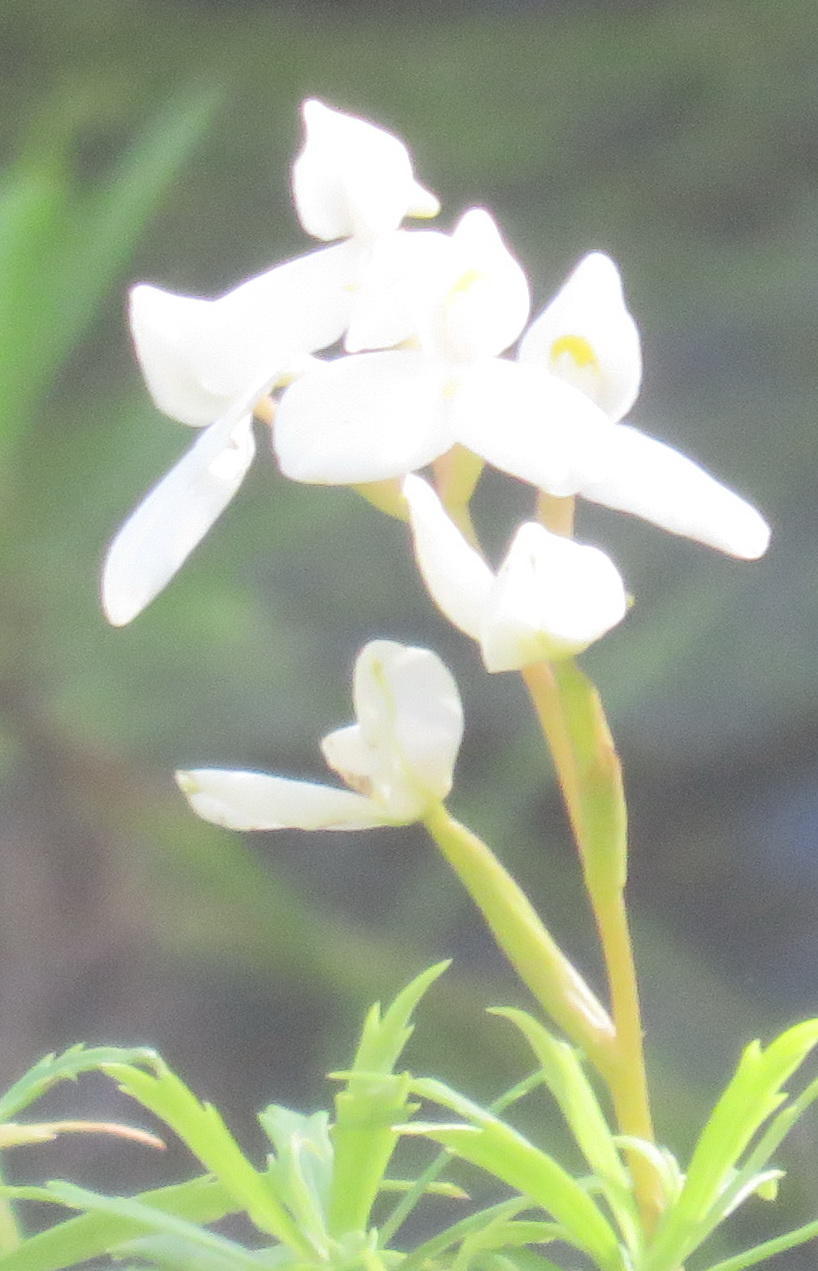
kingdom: Plantae
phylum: Tracheophyta
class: Liliopsida
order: Asparagales
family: Orchidaceae
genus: Disa
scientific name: Disa tripetaloides
